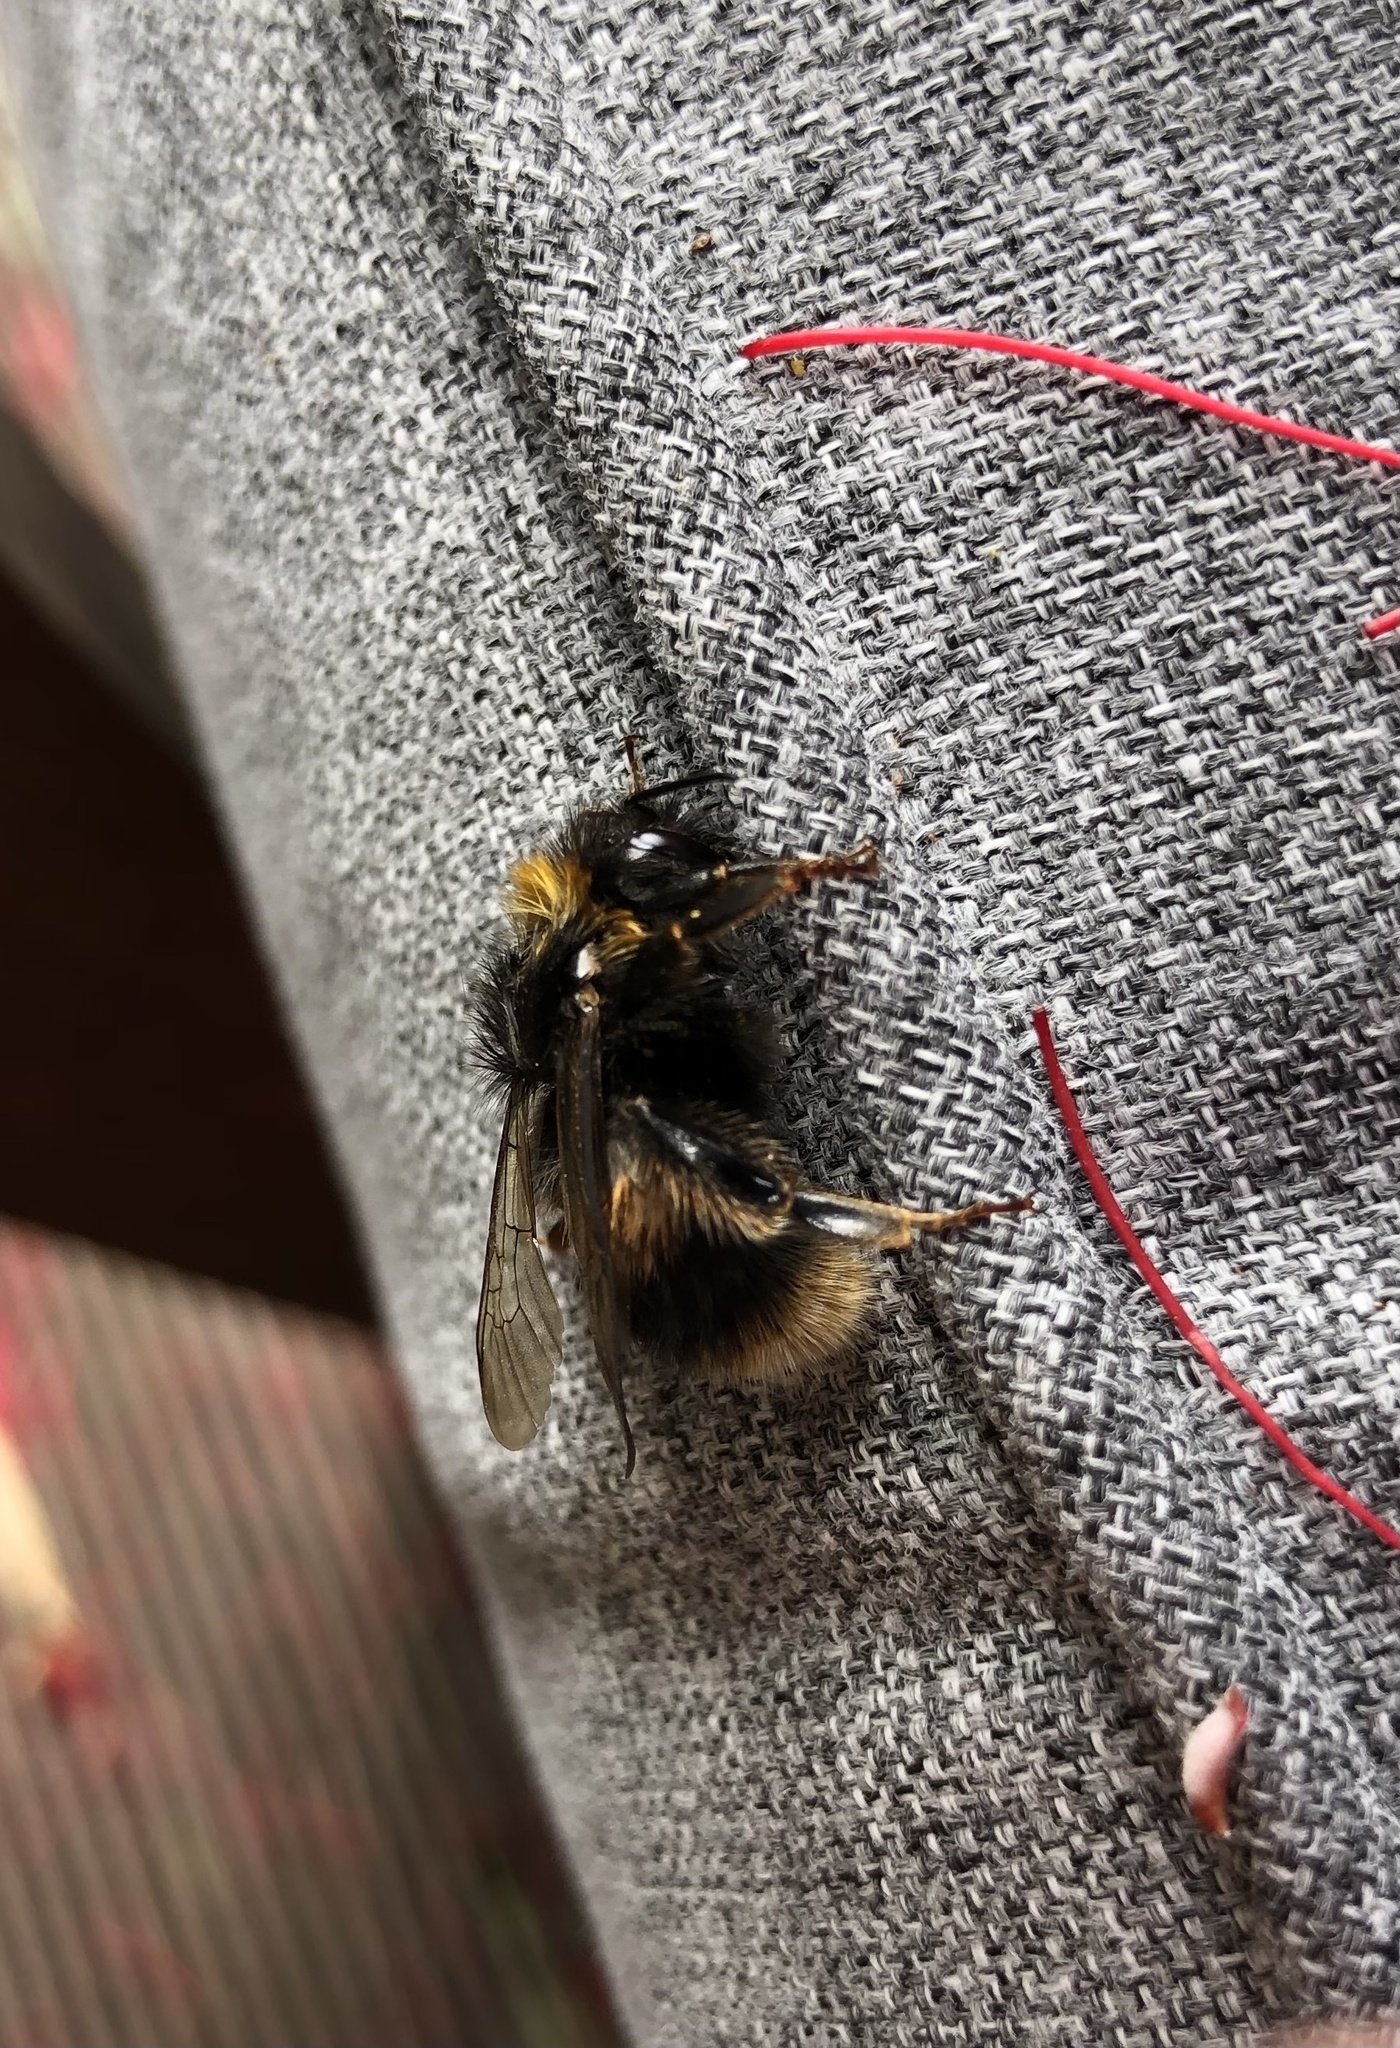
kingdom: Animalia
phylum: Arthropoda
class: Insecta
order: Hymenoptera
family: Apidae
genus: Bombus
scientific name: Bombus terrestris
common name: Buff-tailed bumblebee
